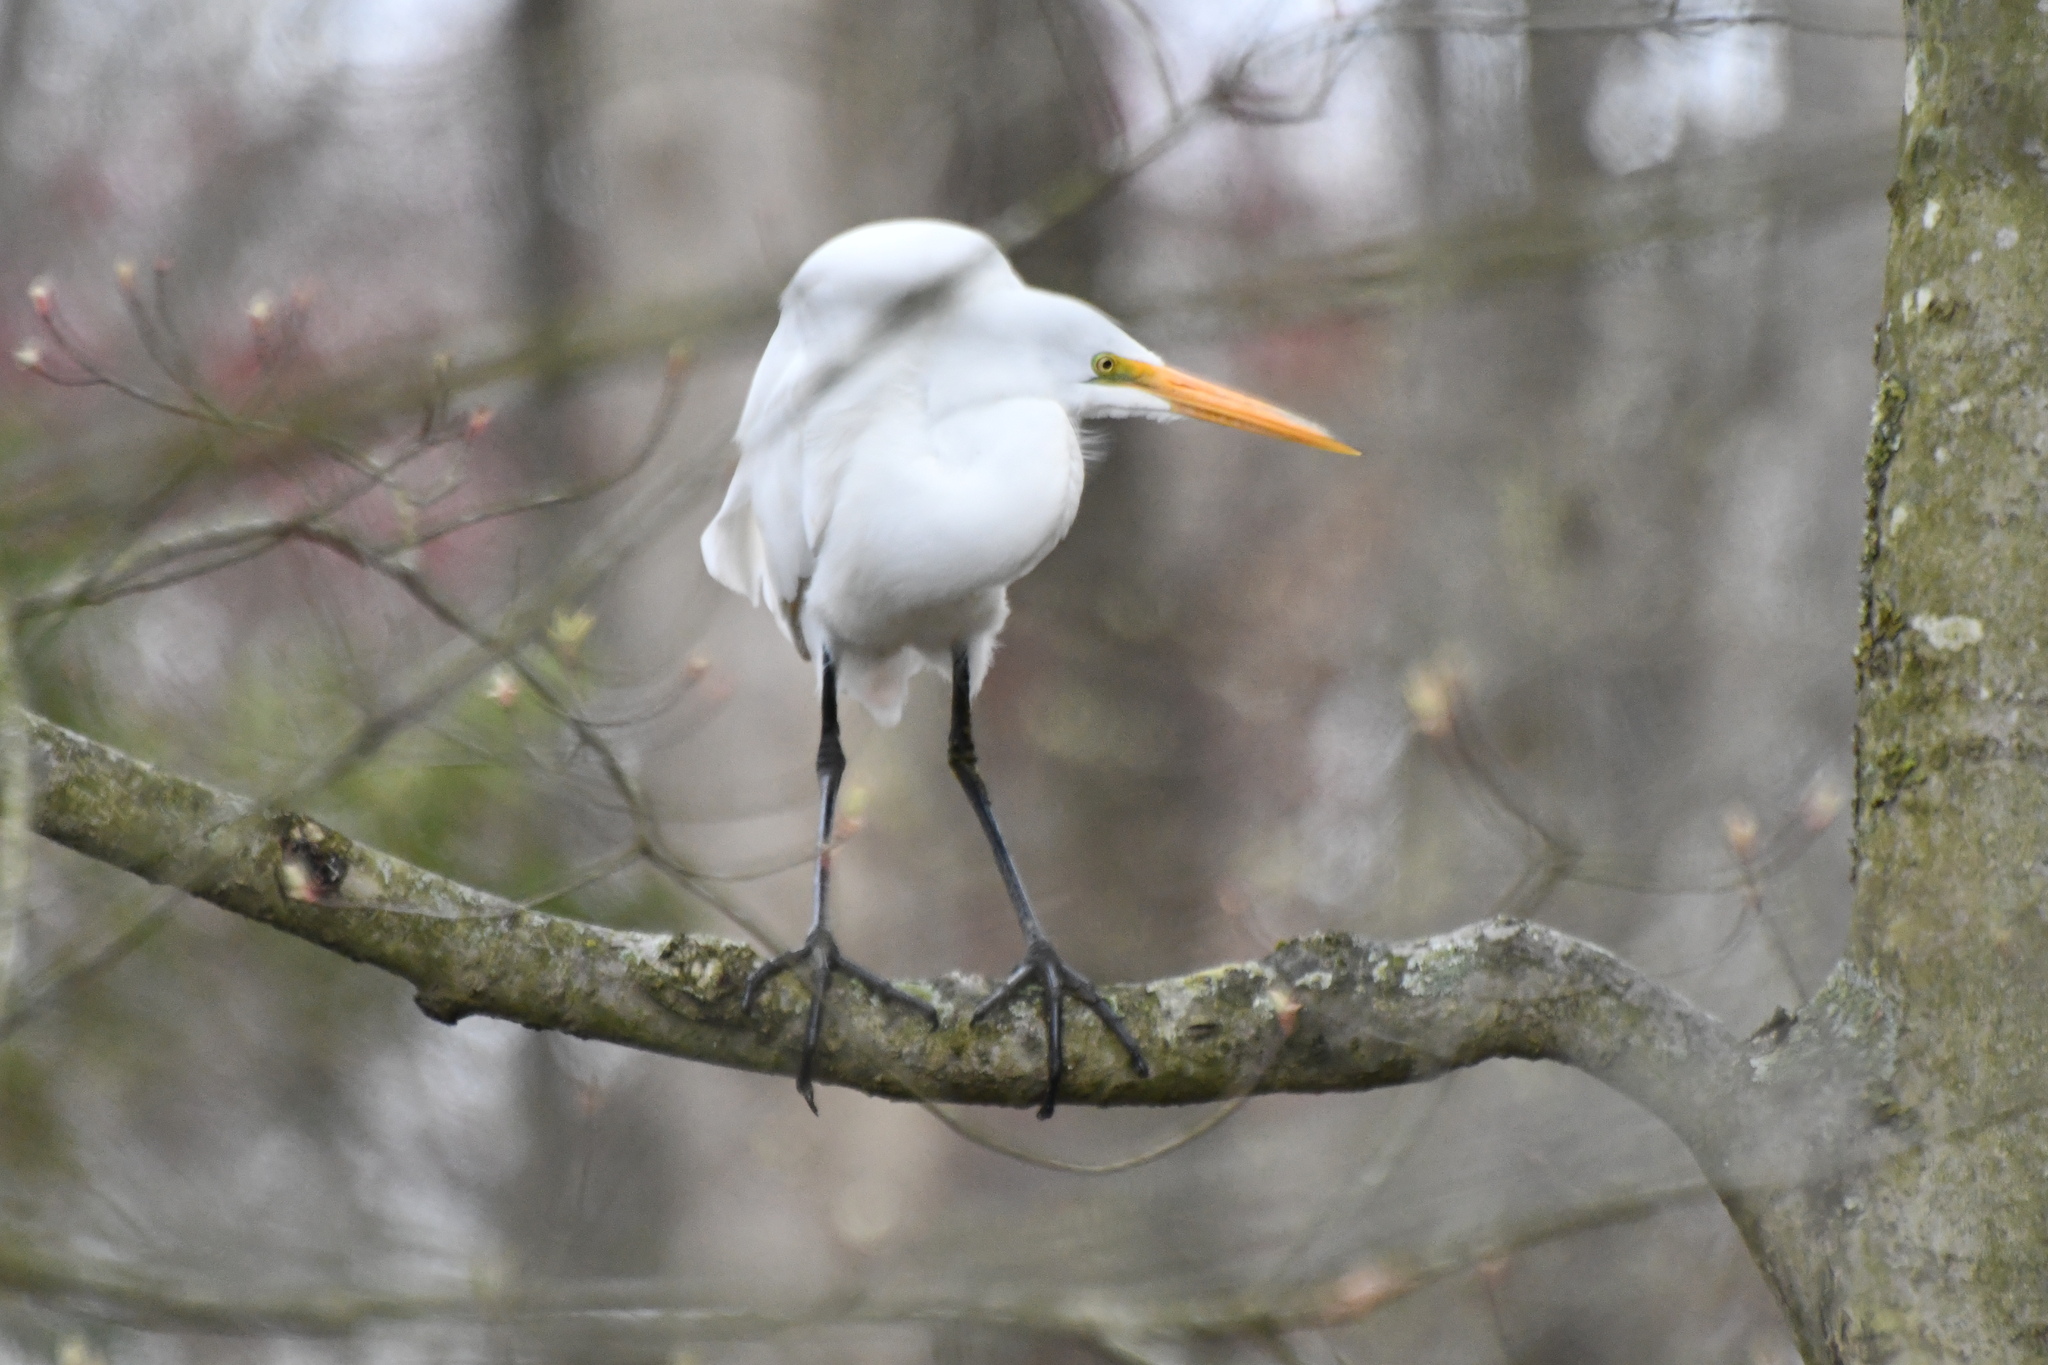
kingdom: Animalia
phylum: Chordata
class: Aves
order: Pelecaniformes
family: Ardeidae
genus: Ardea
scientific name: Ardea alba
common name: Great egret
